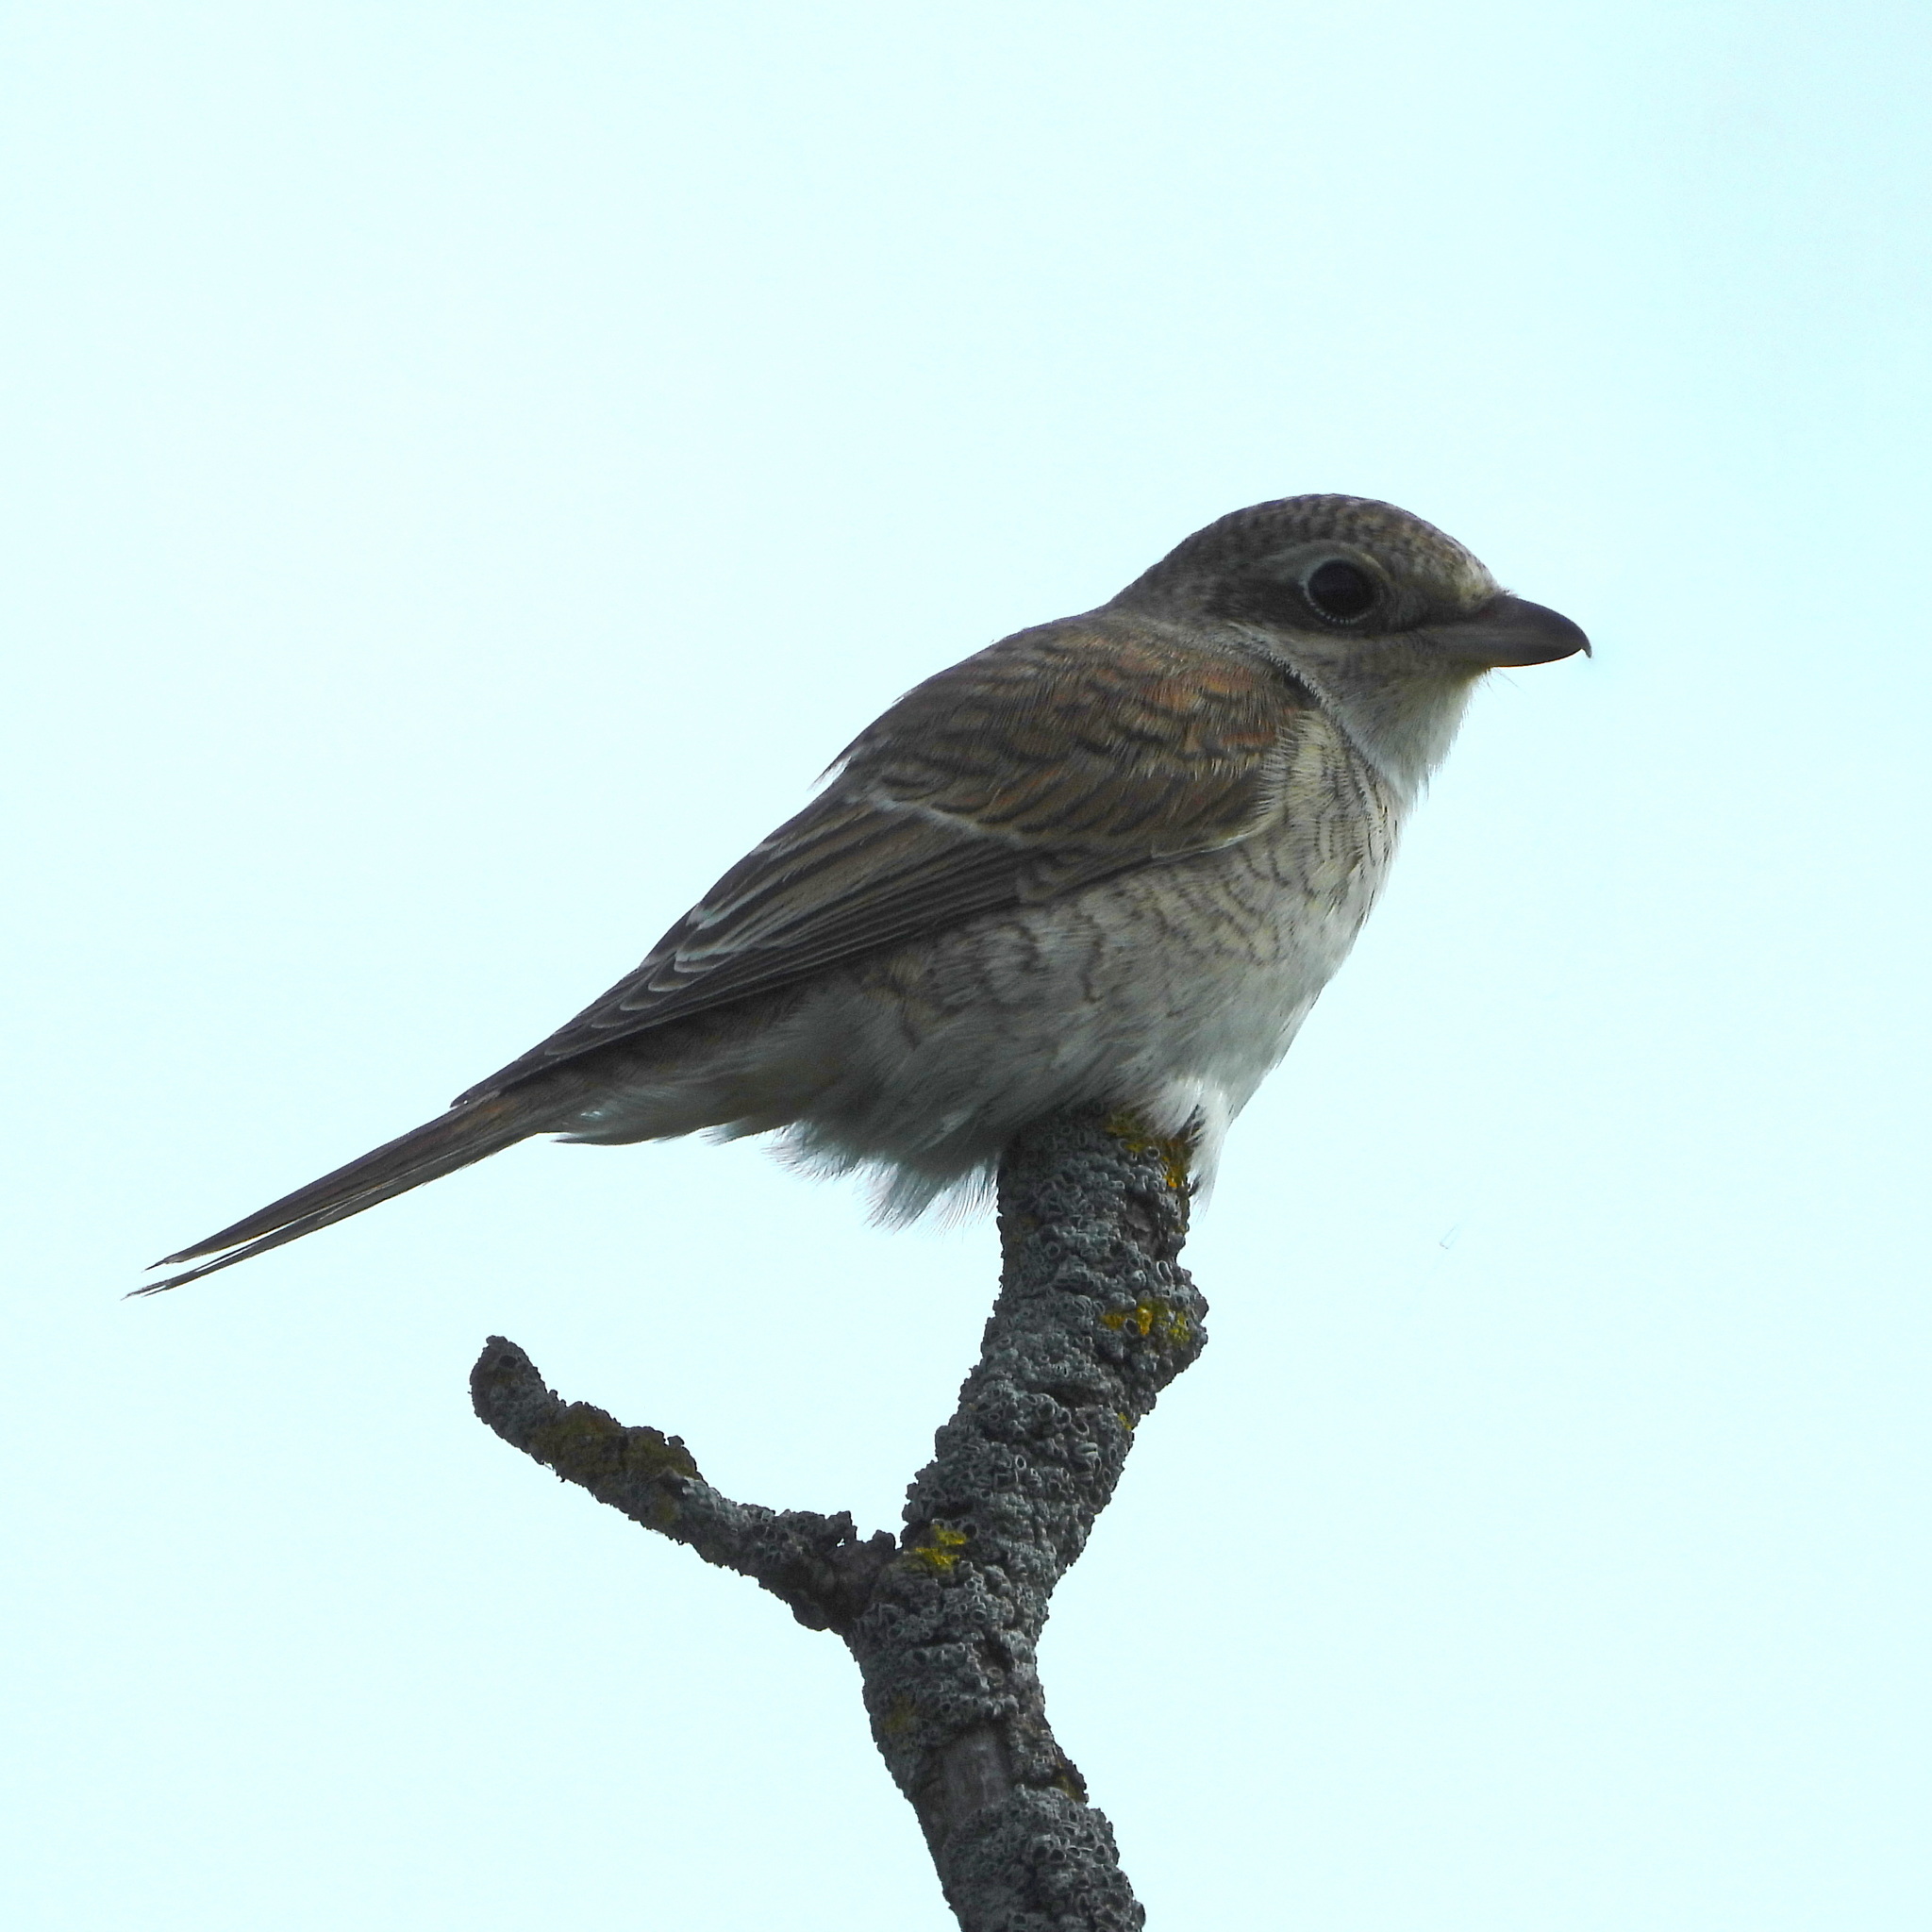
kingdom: Animalia
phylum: Chordata
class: Aves
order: Passeriformes
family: Laniidae
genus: Lanius
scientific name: Lanius collurio
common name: Red-backed shrike
